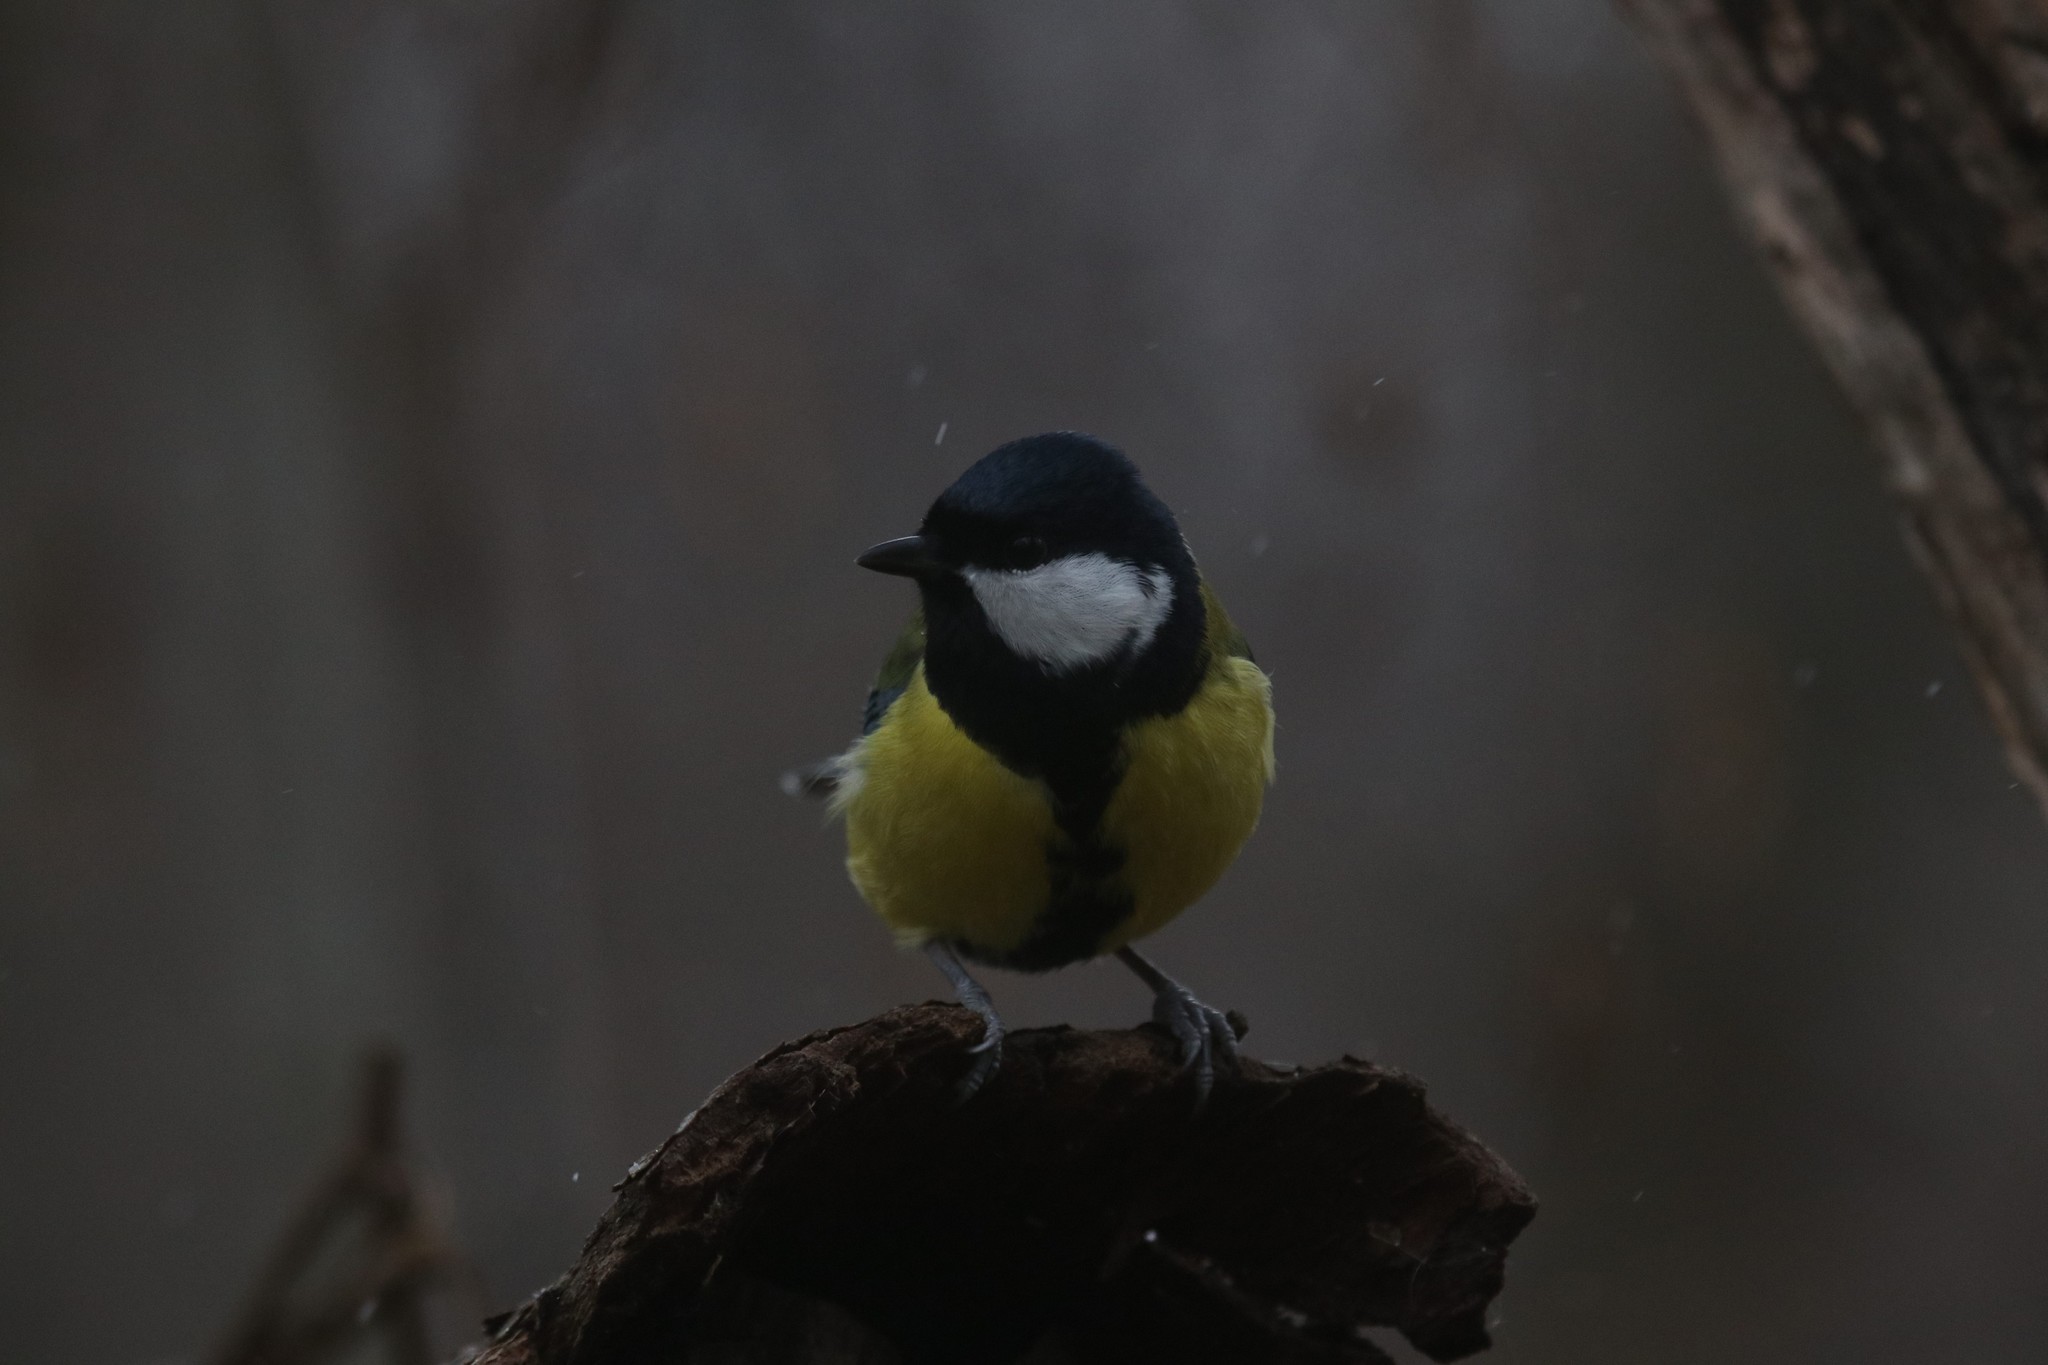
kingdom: Animalia
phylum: Chordata
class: Aves
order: Passeriformes
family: Paridae
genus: Parus
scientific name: Parus major
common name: Great tit
